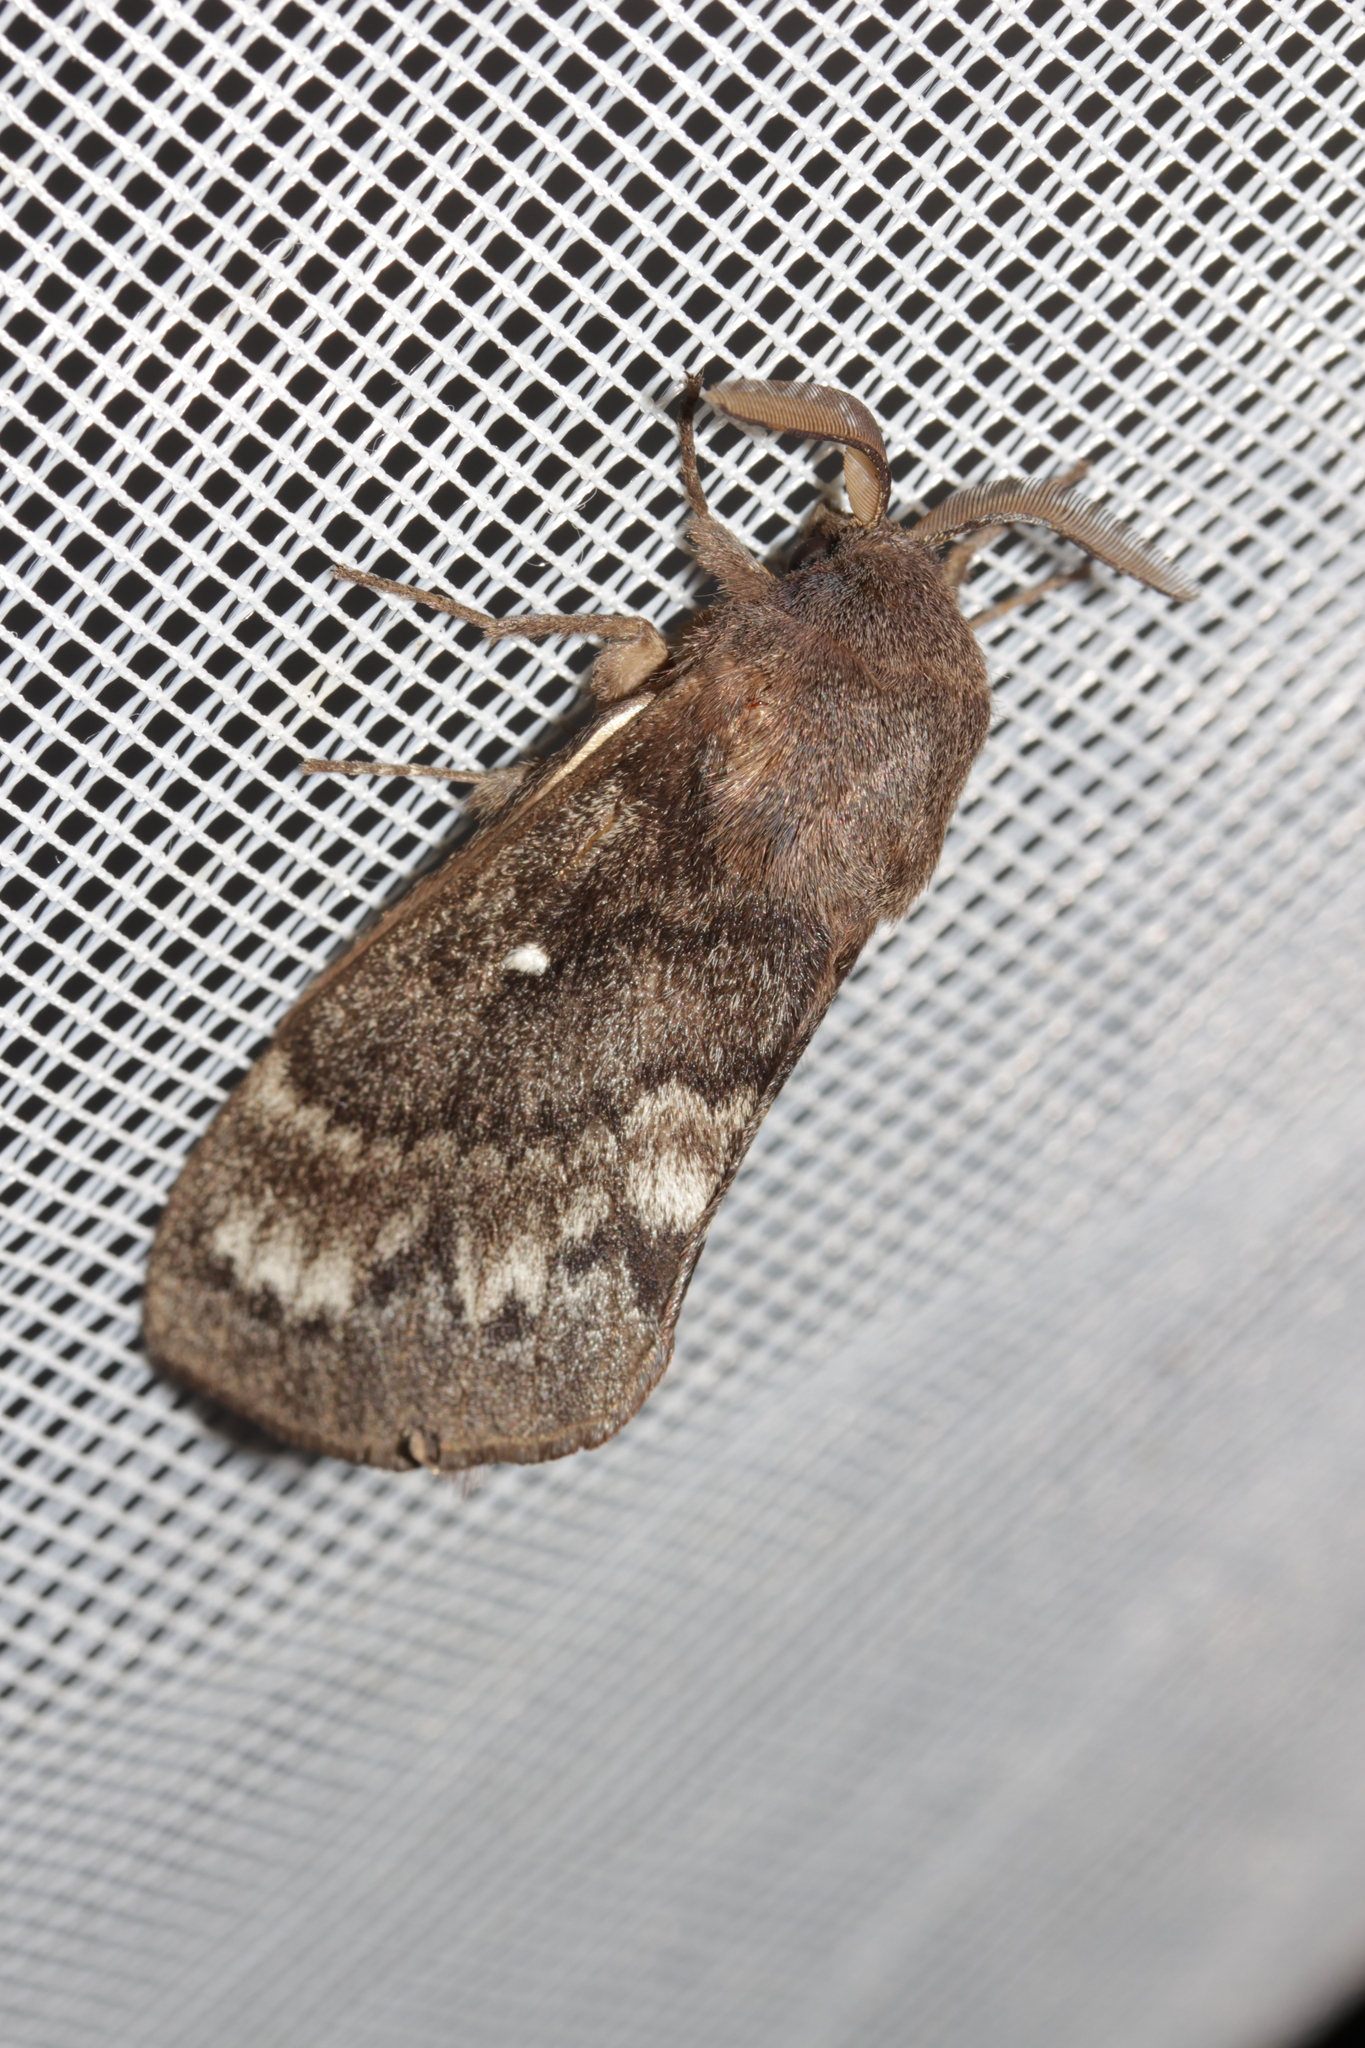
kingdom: Animalia
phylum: Arthropoda
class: Insecta
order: Lepidoptera
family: Lasiocampidae
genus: Dendrolimus
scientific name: Dendrolimus pini
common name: Pine-tree lappet
